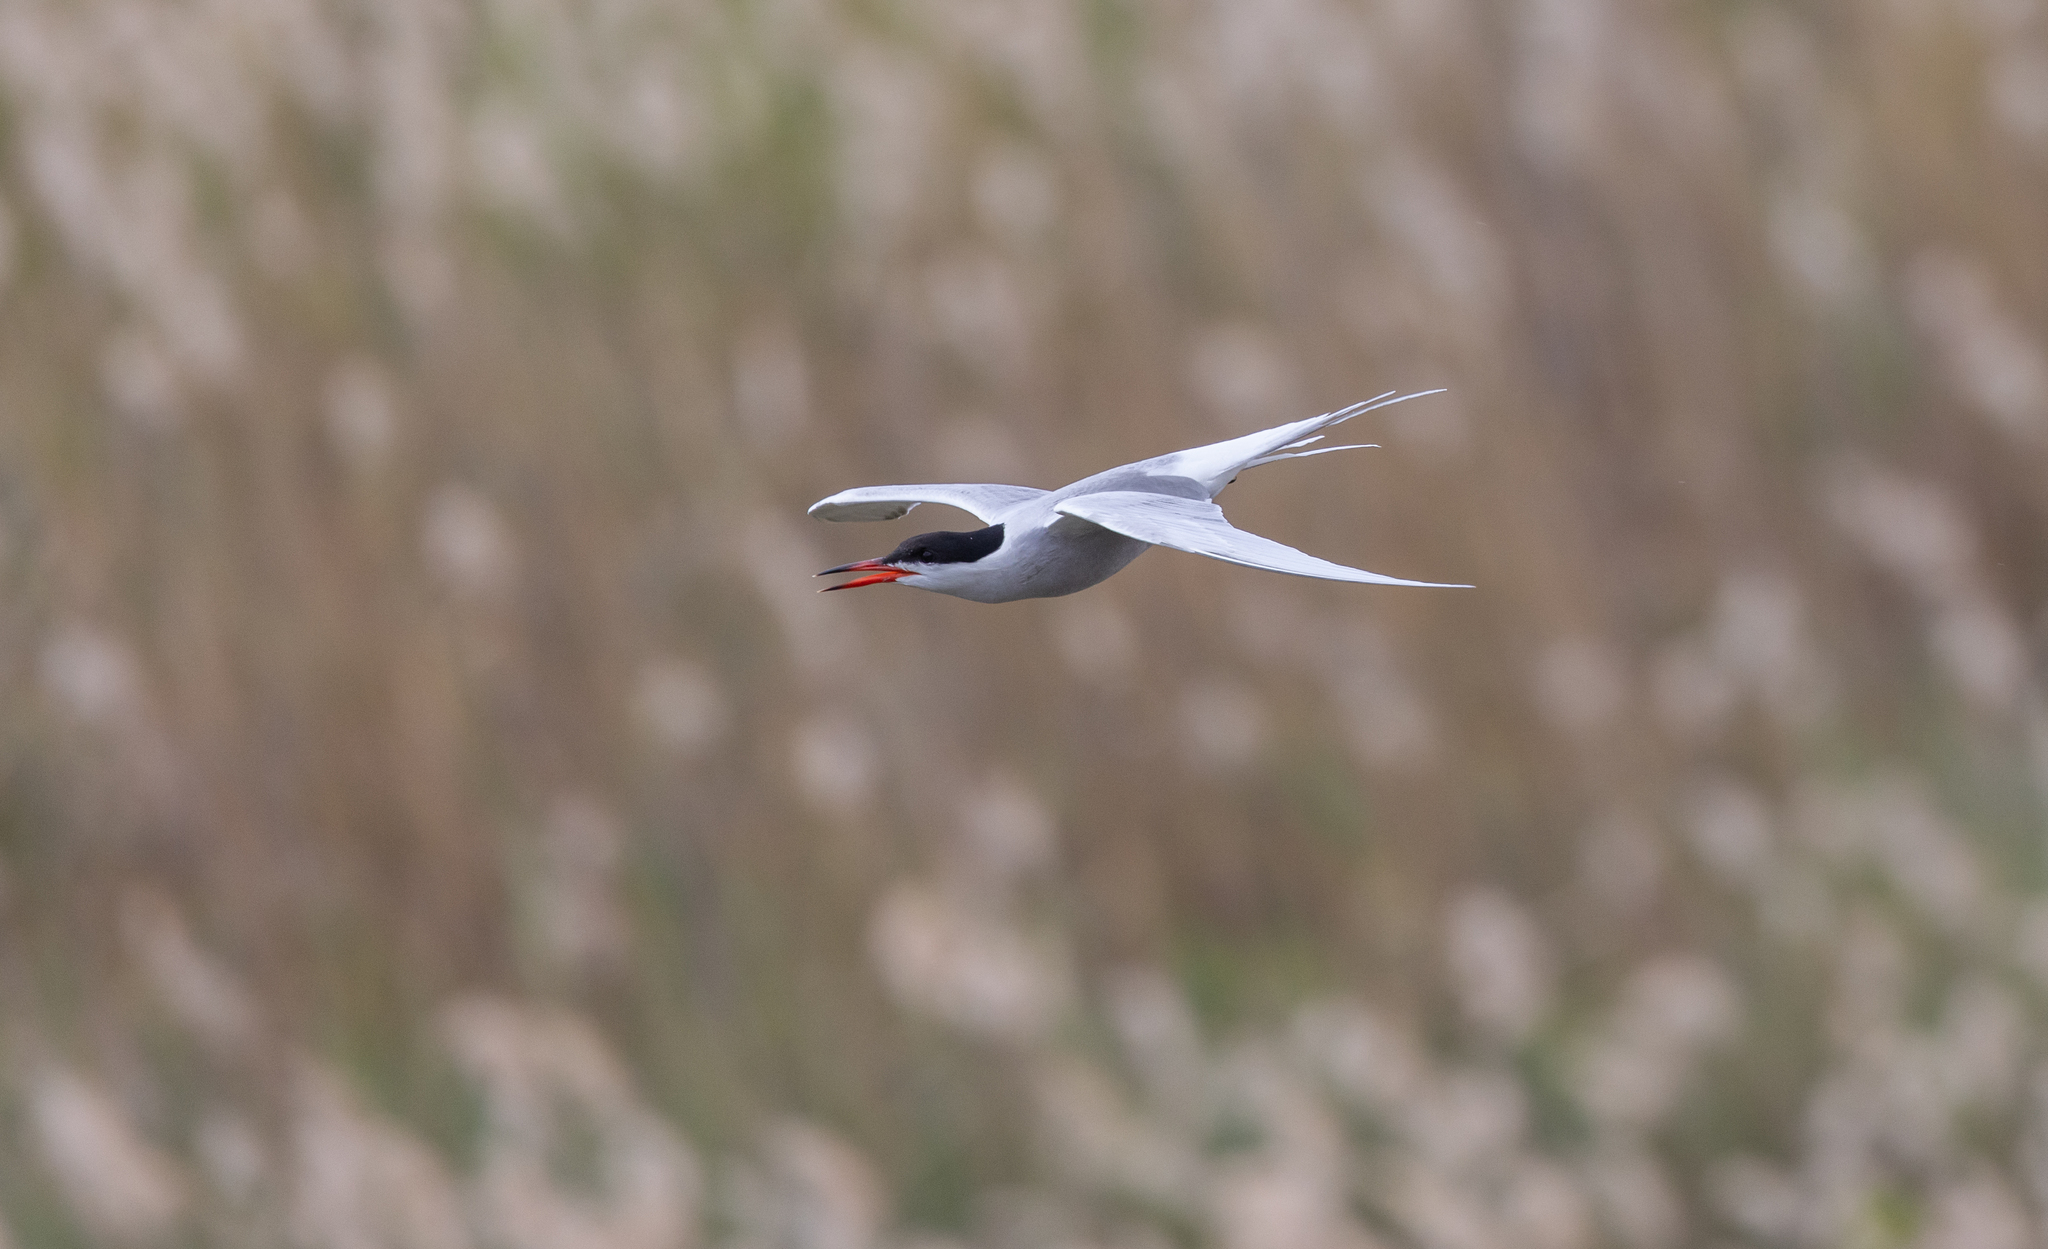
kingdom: Animalia
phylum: Chordata
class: Aves
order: Charadriiformes
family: Laridae
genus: Sterna
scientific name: Sterna hirundo
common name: Common tern
